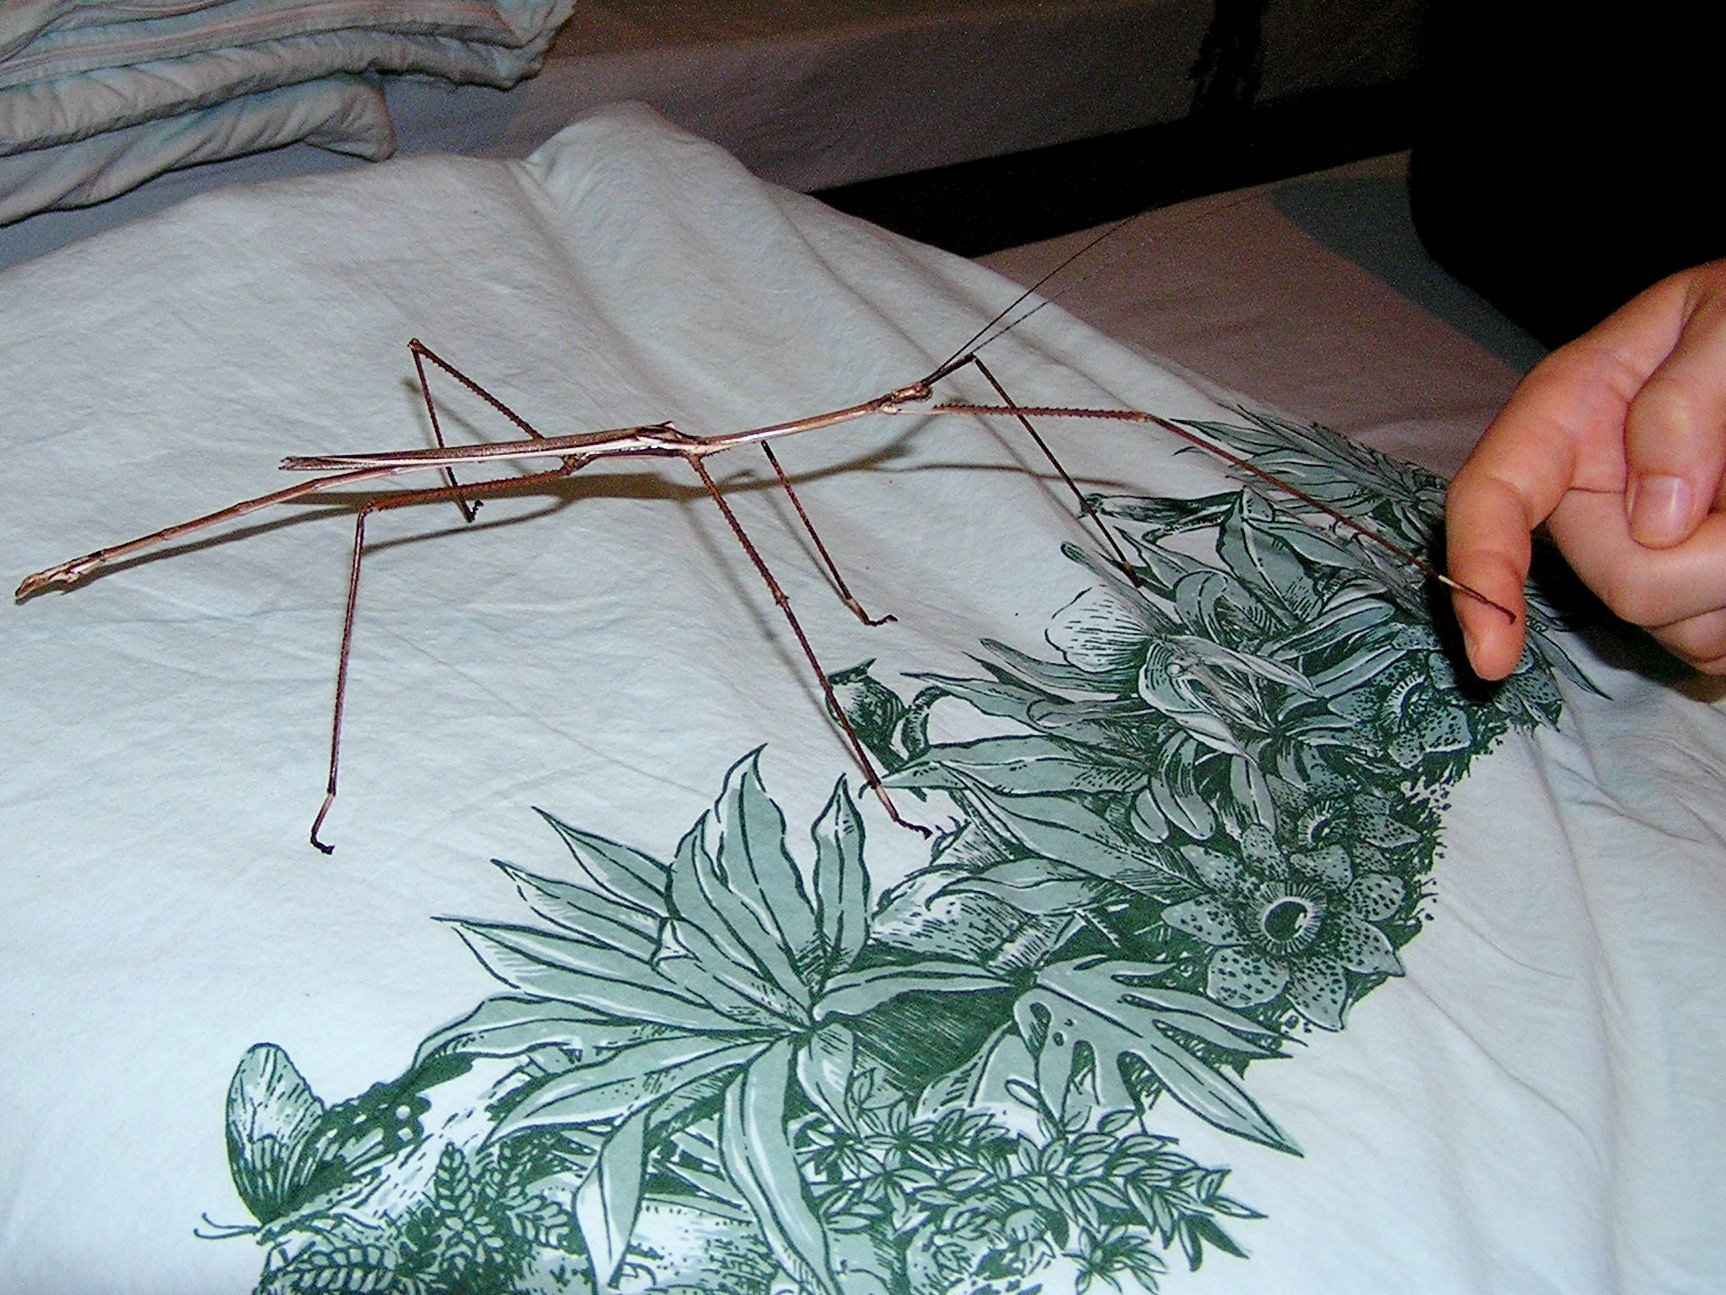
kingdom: Animalia
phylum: Arthropoda
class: Insecta
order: Phasmida
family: Phasmatidae
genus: Phobaeticus
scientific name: Phobaeticus magnus
